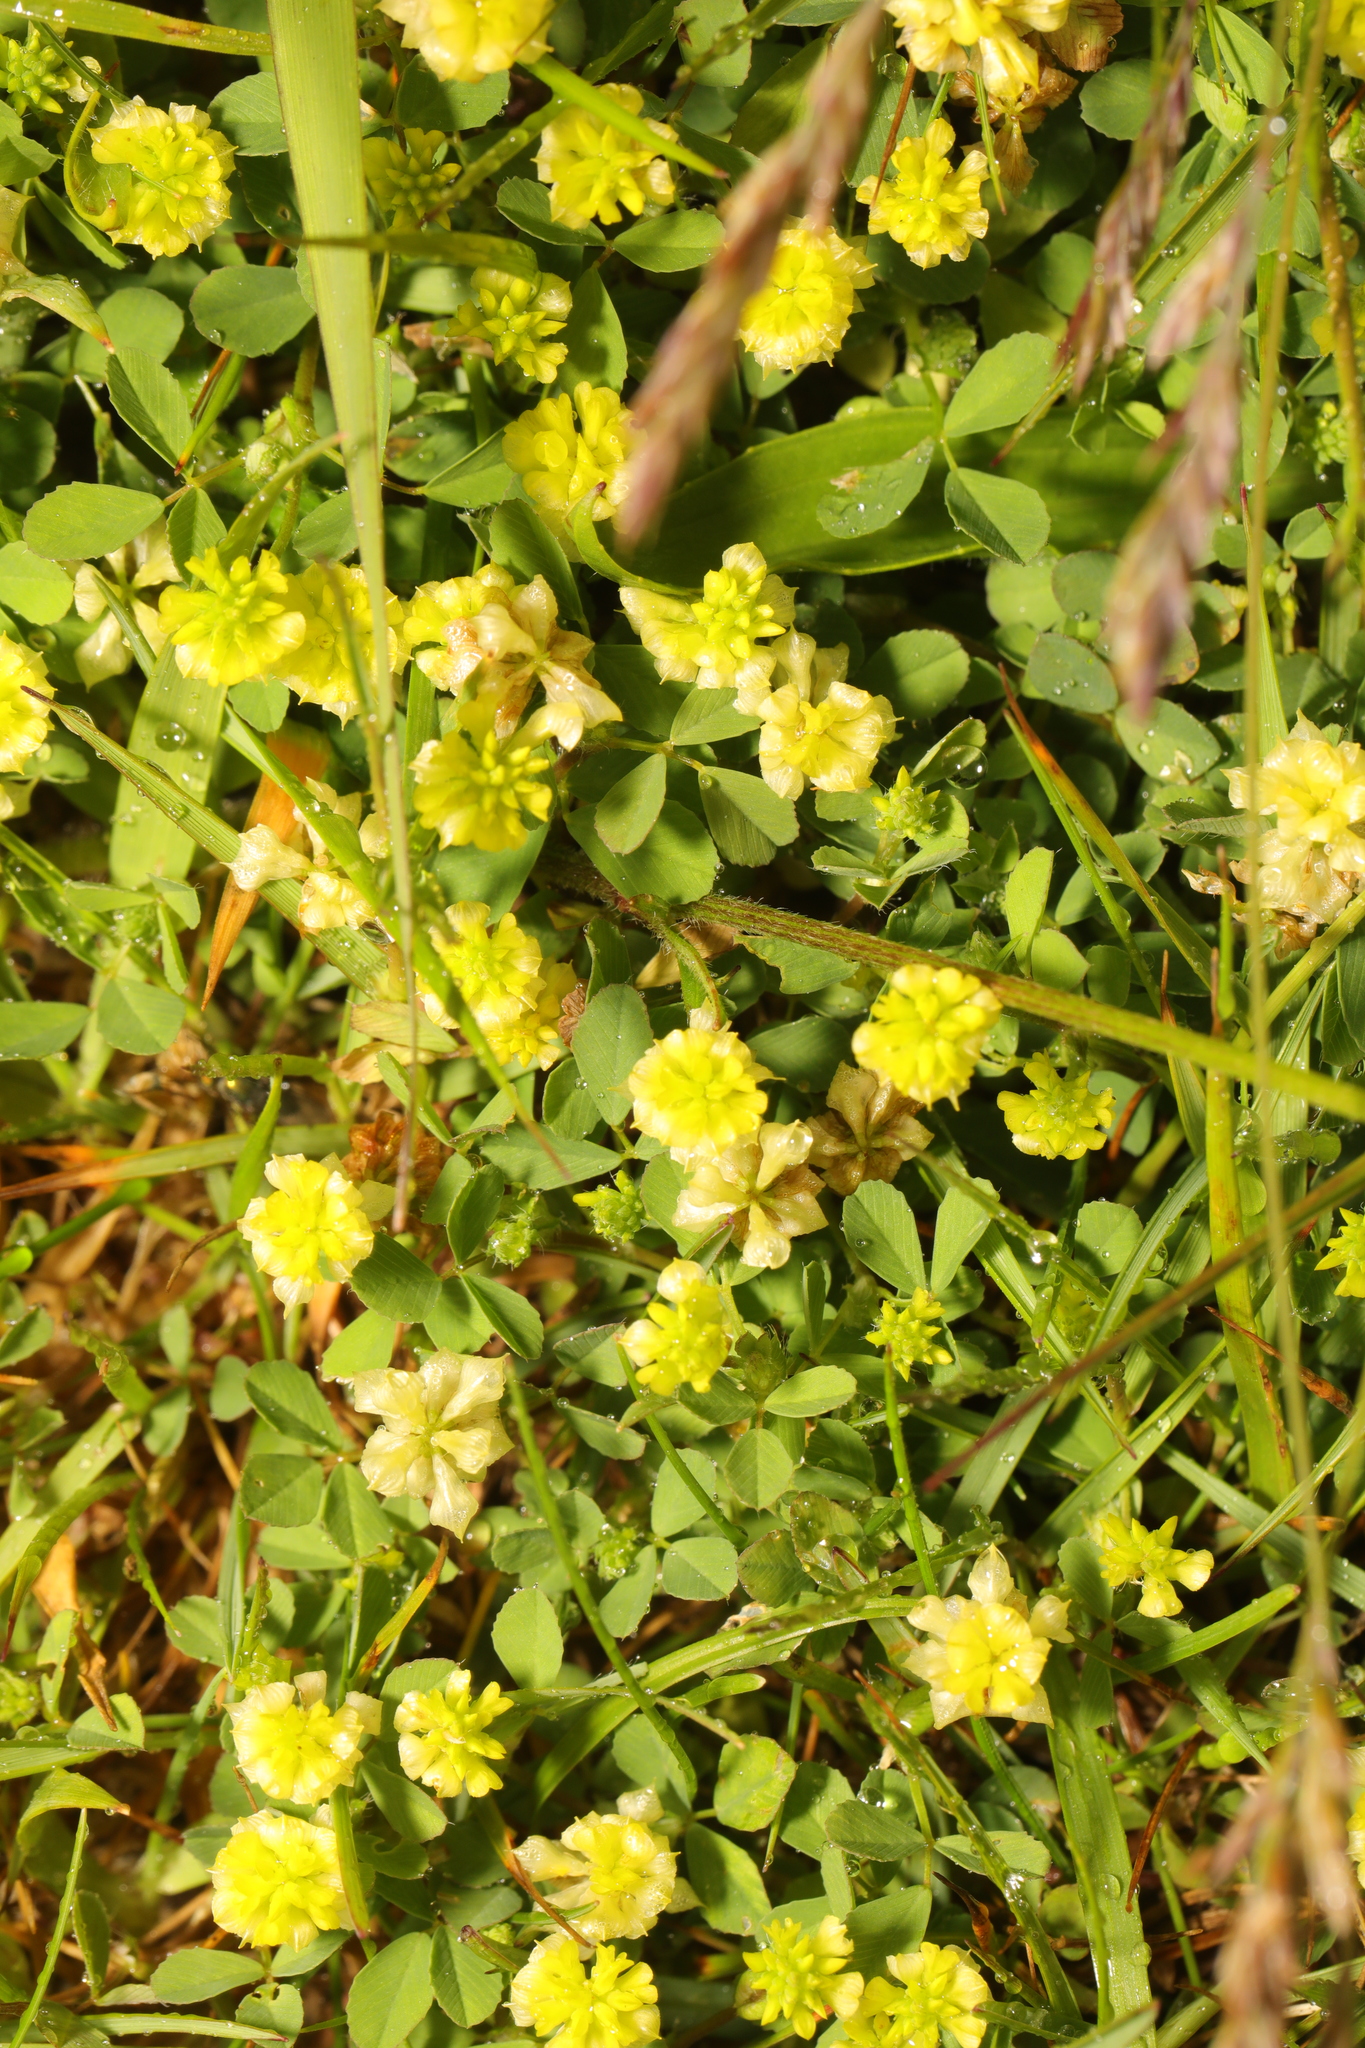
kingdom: Plantae
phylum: Tracheophyta
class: Magnoliopsida
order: Fabales
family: Fabaceae
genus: Trifolium
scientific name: Trifolium campestre
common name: Field clover
